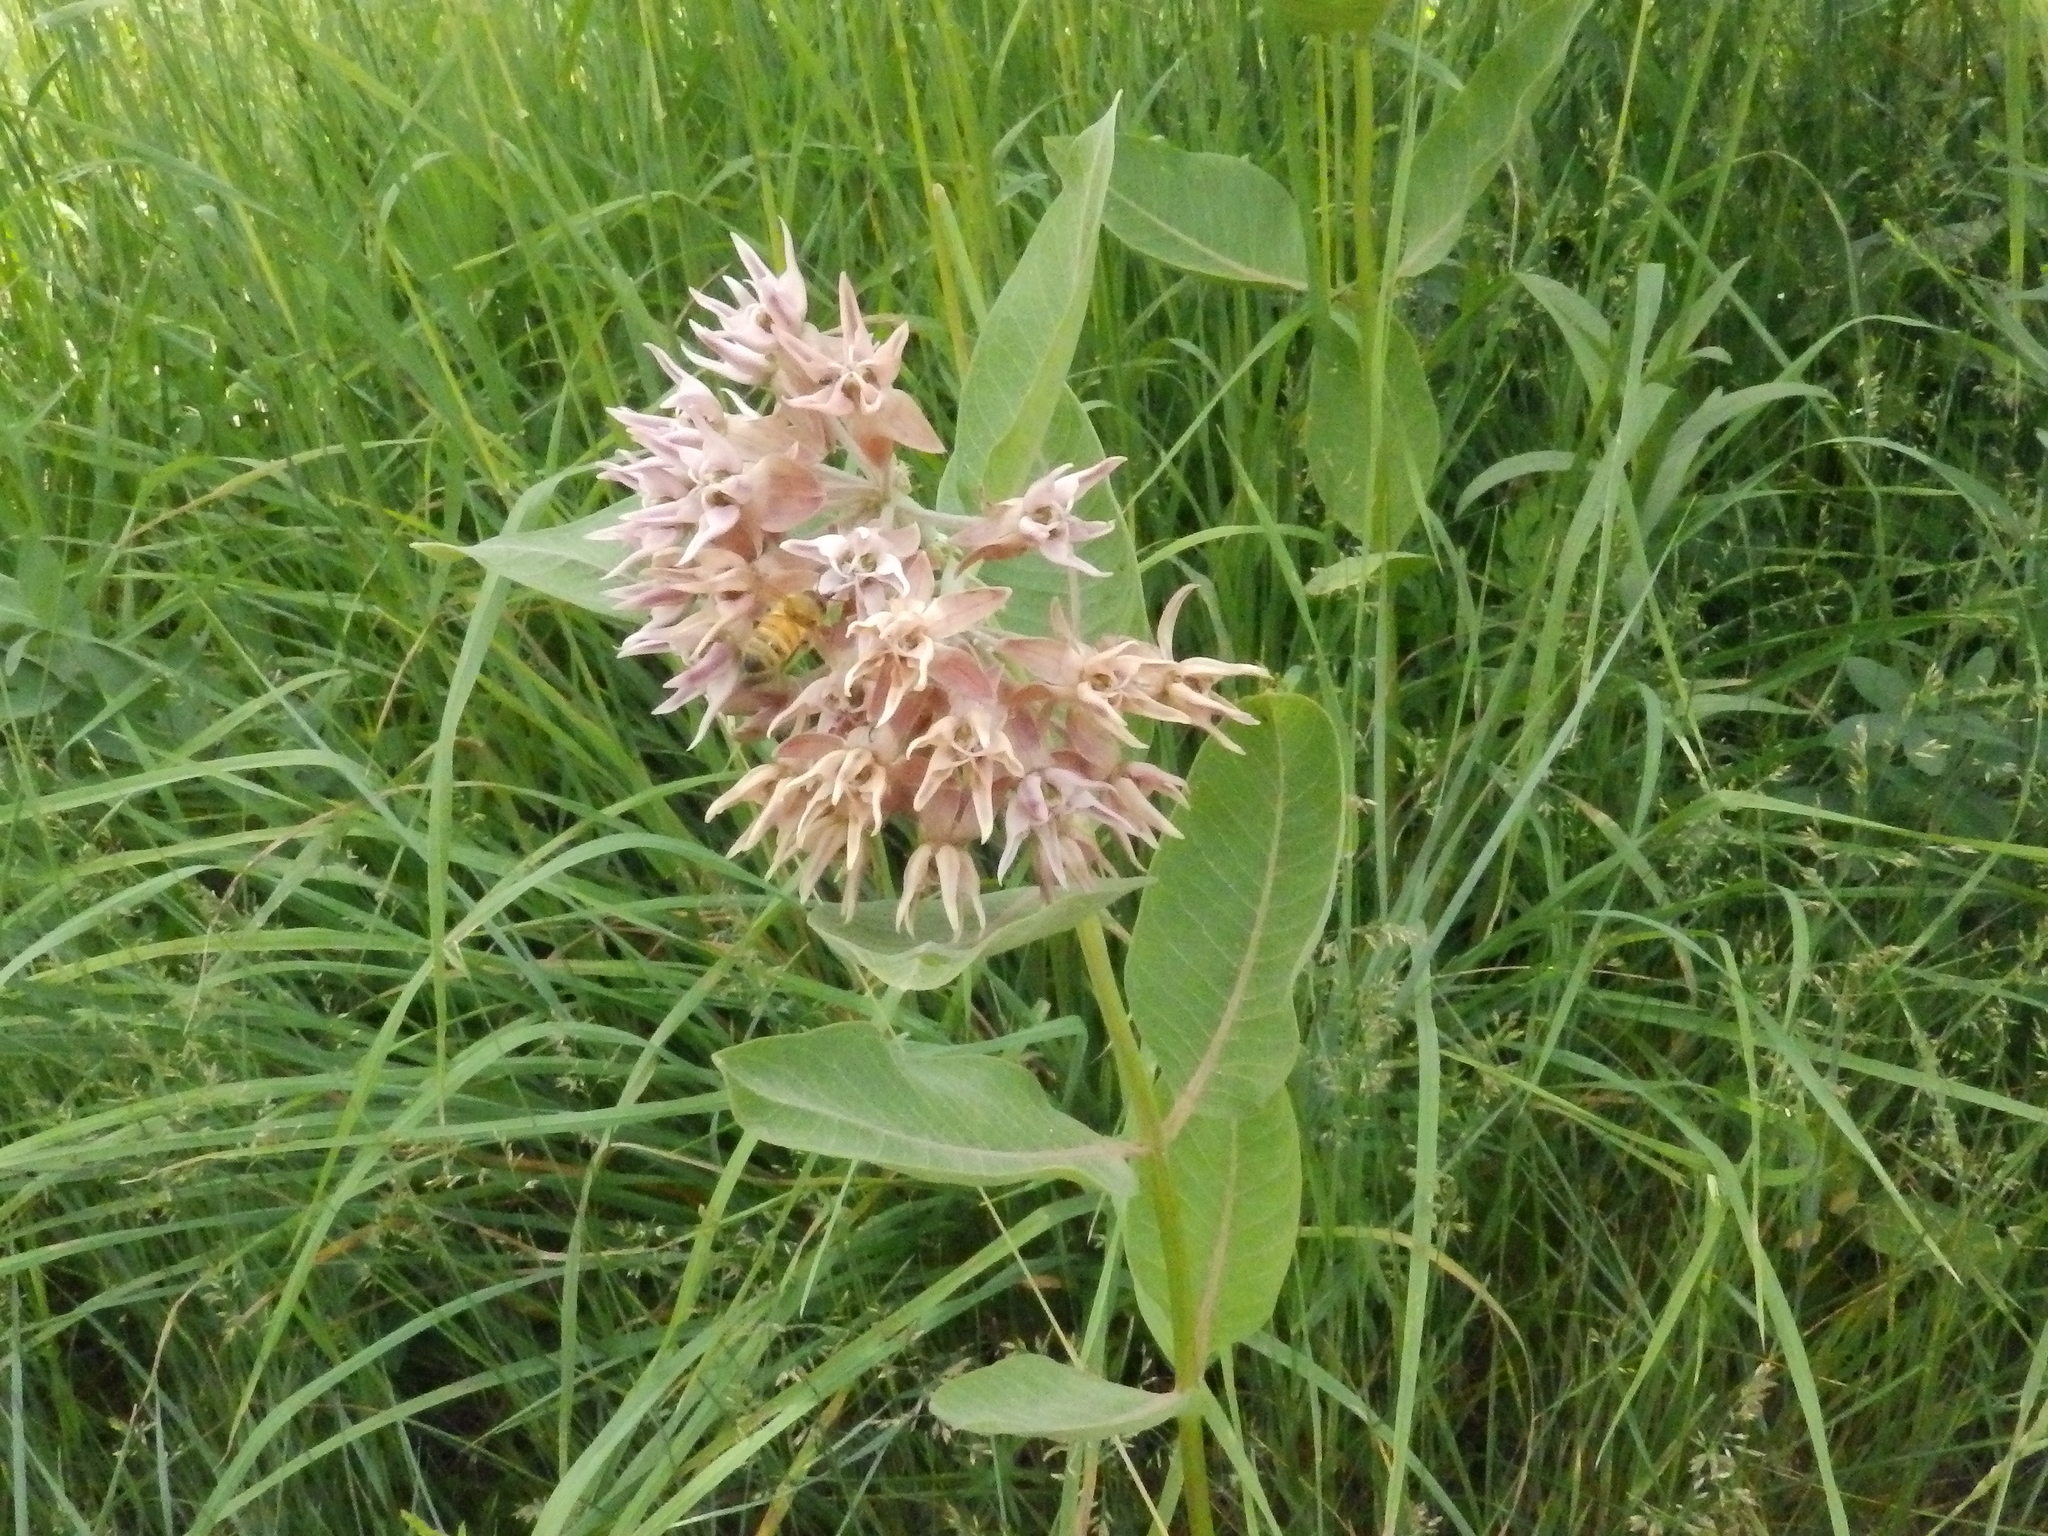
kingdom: Plantae
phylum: Tracheophyta
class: Magnoliopsida
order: Gentianales
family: Apocynaceae
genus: Asclepias
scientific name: Asclepias speciosa
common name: Showy milkweed
